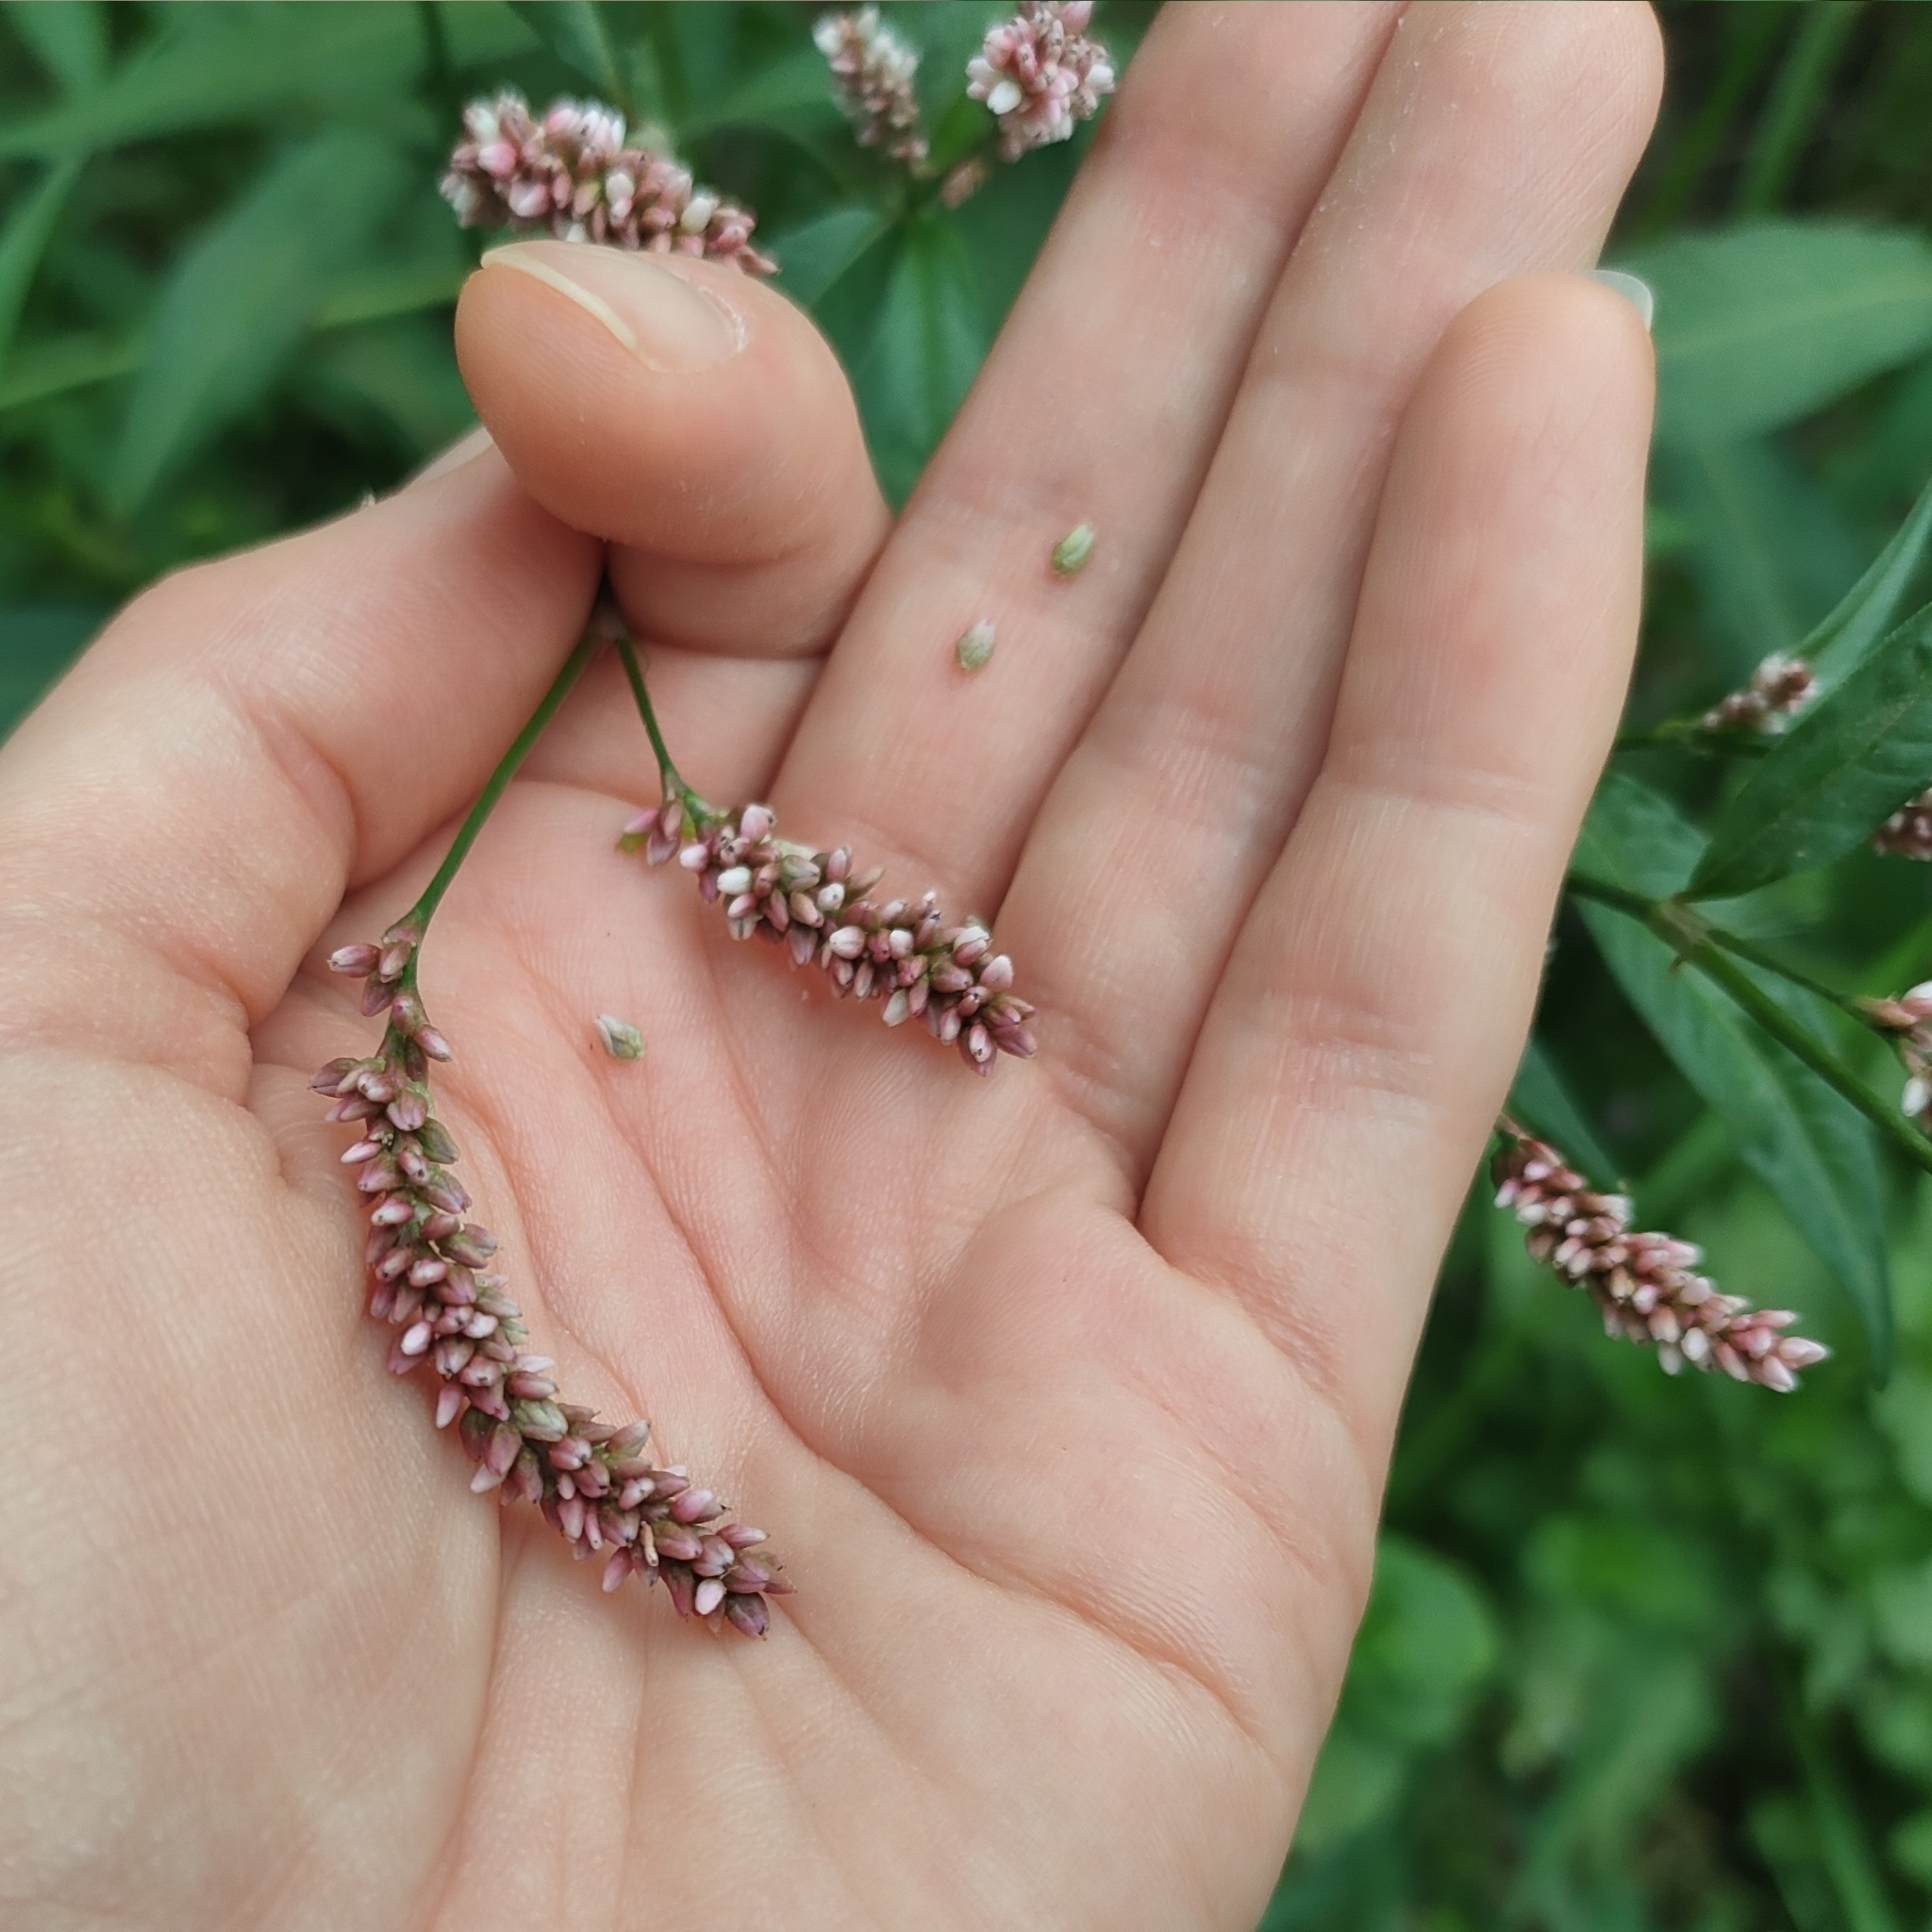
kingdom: Plantae
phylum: Tracheophyta
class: Magnoliopsida
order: Caryophyllales
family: Polygonaceae
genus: Persicaria
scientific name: Persicaria maculosa
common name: Redshank
